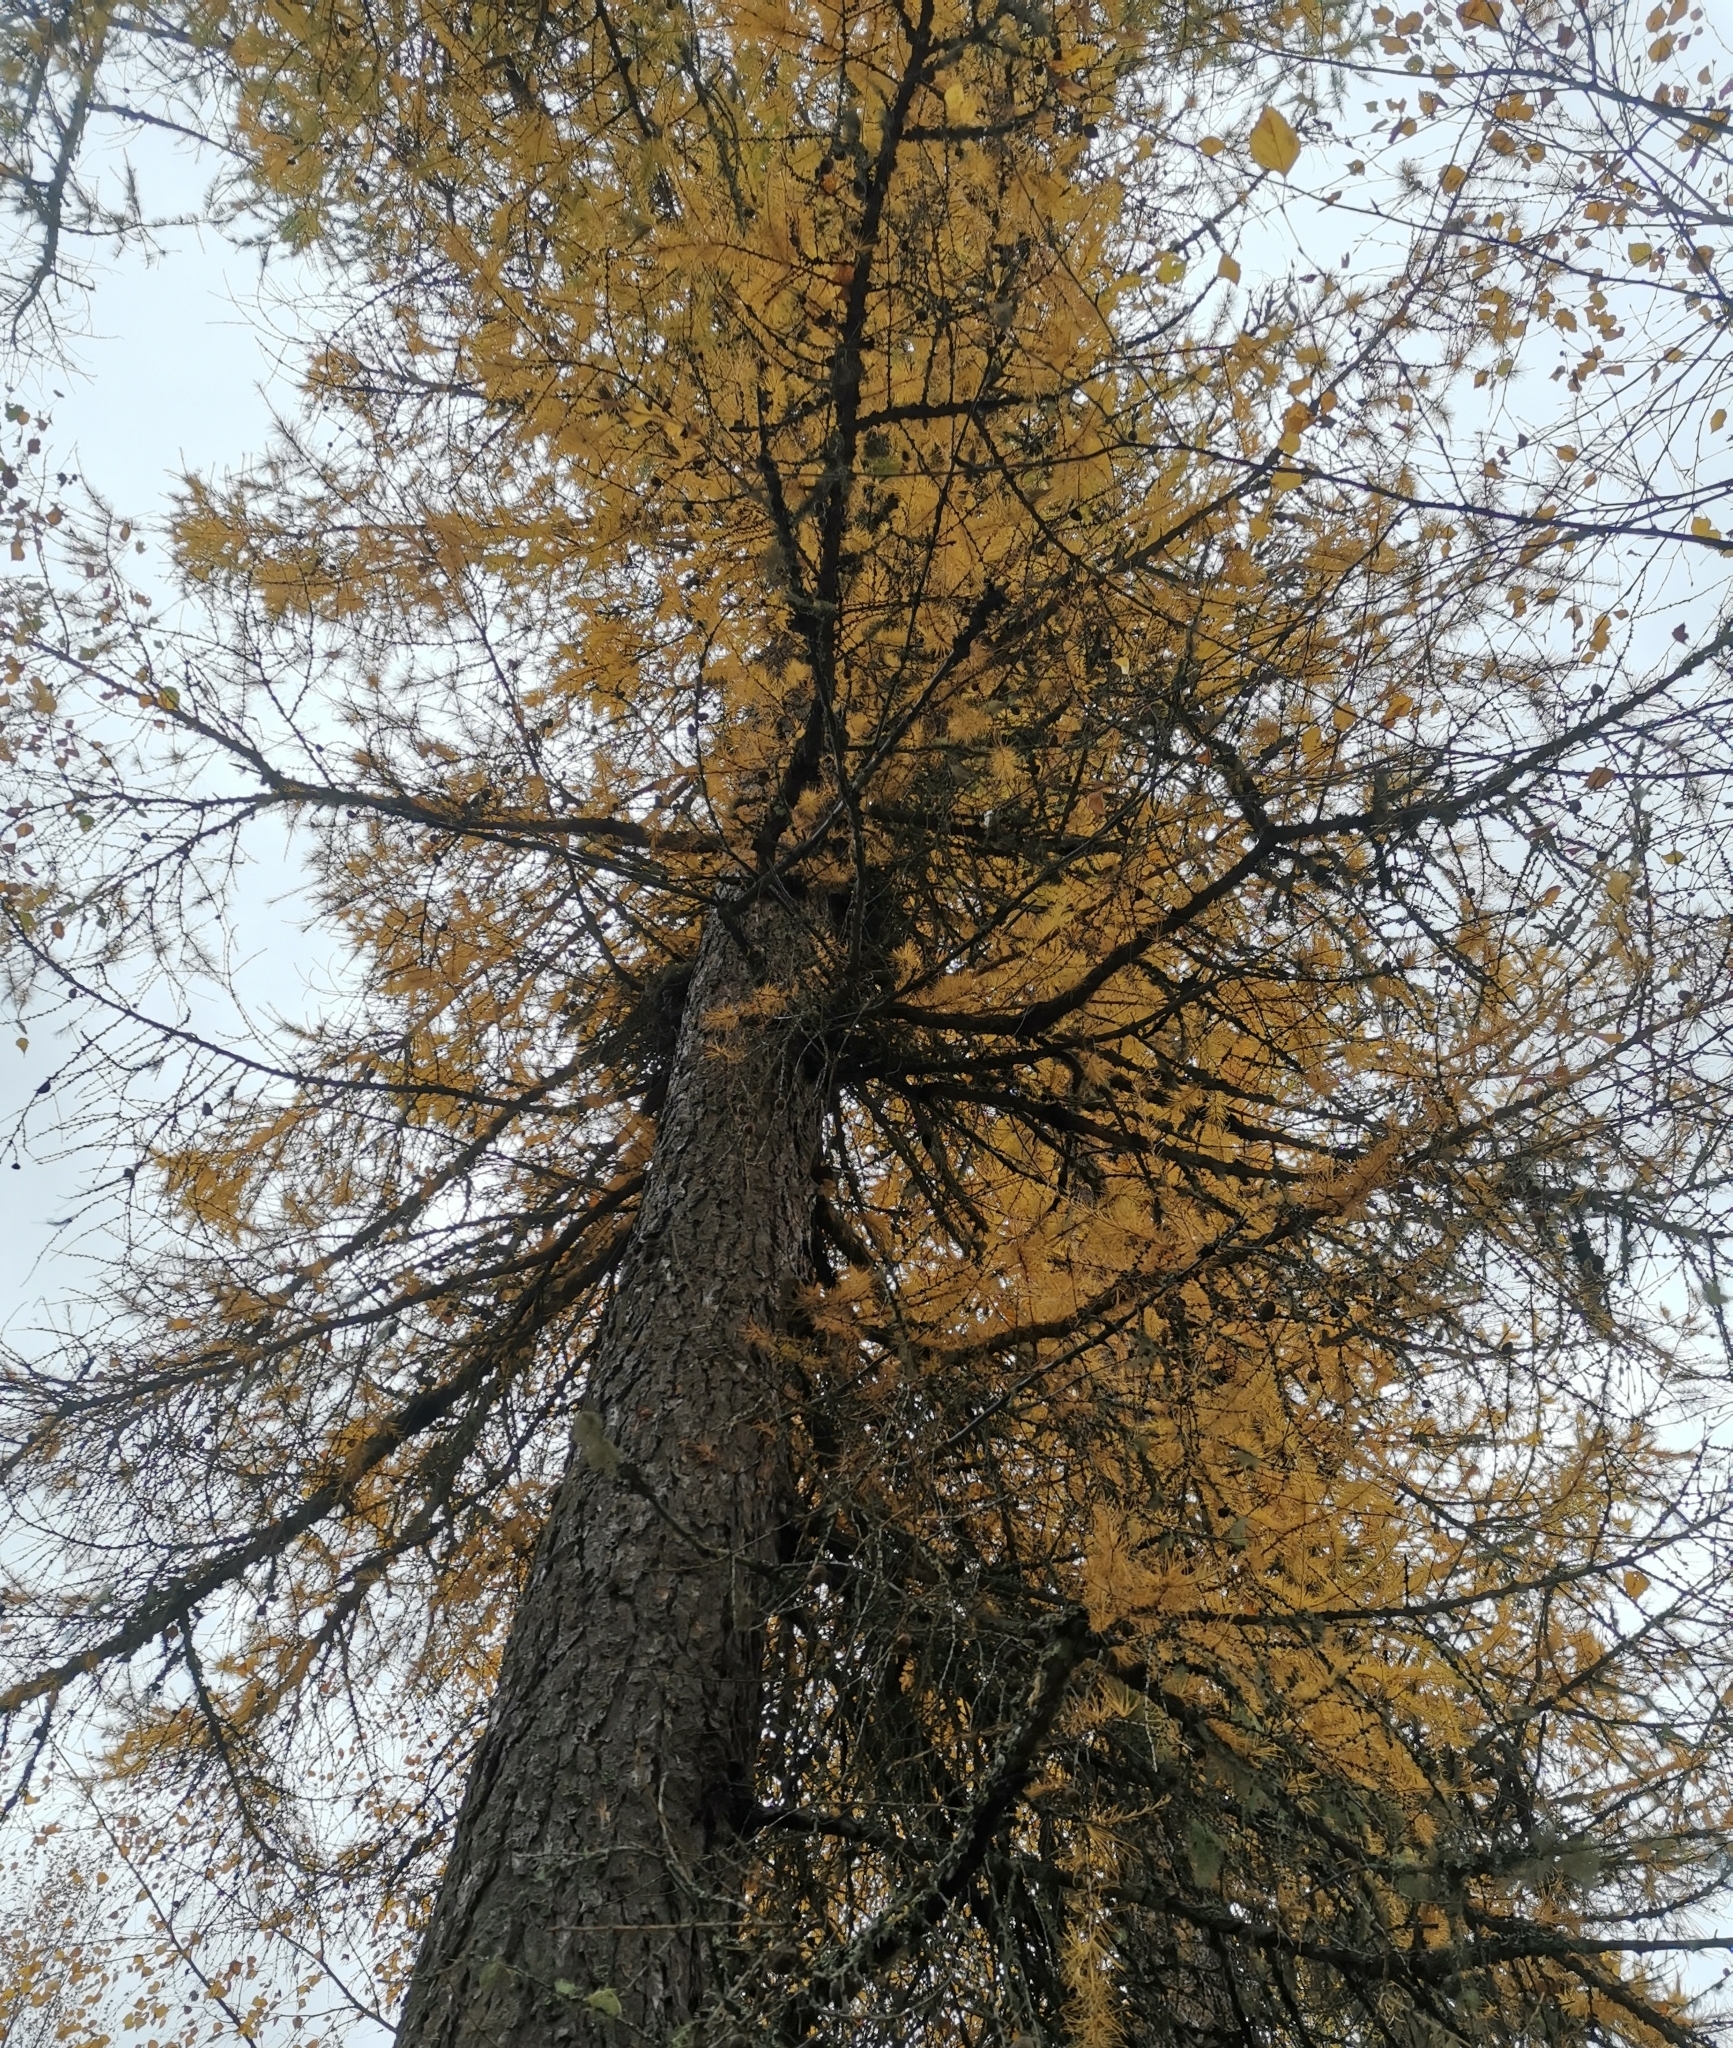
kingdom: Plantae
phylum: Tracheophyta
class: Pinopsida
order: Pinales
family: Pinaceae
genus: Larix
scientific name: Larix decidua
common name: European larch
